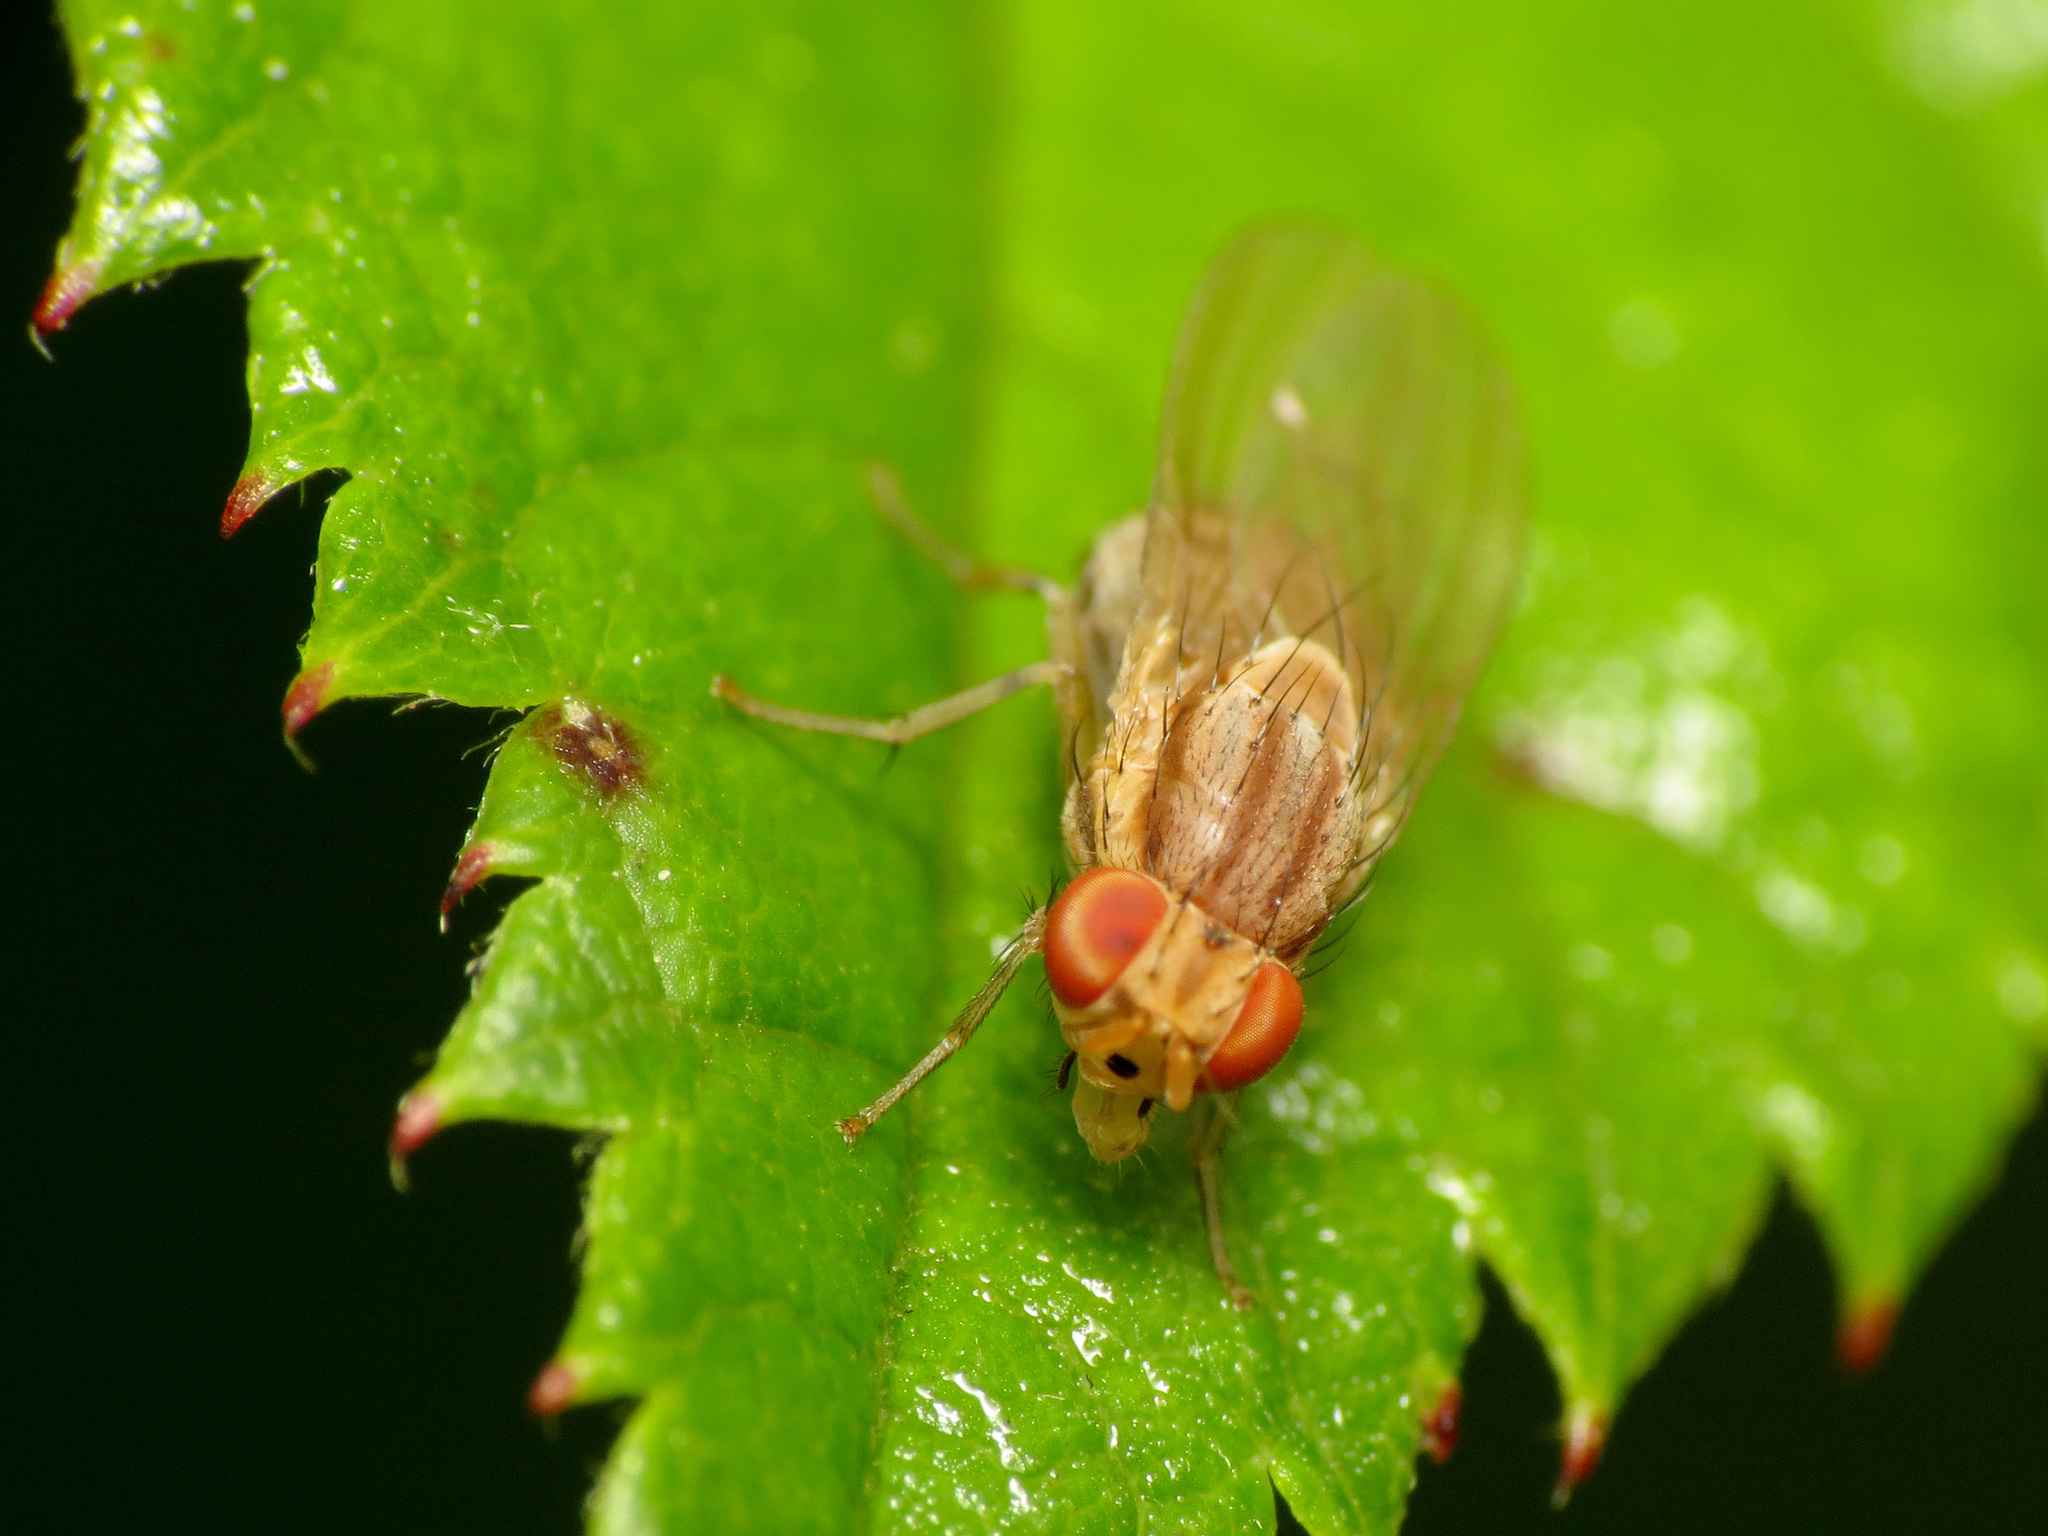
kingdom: Animalia
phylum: Arthropoda
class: Insecta
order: Diptera
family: Lauxaniidae
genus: Poecilominettia
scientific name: Poecilominettia valida
